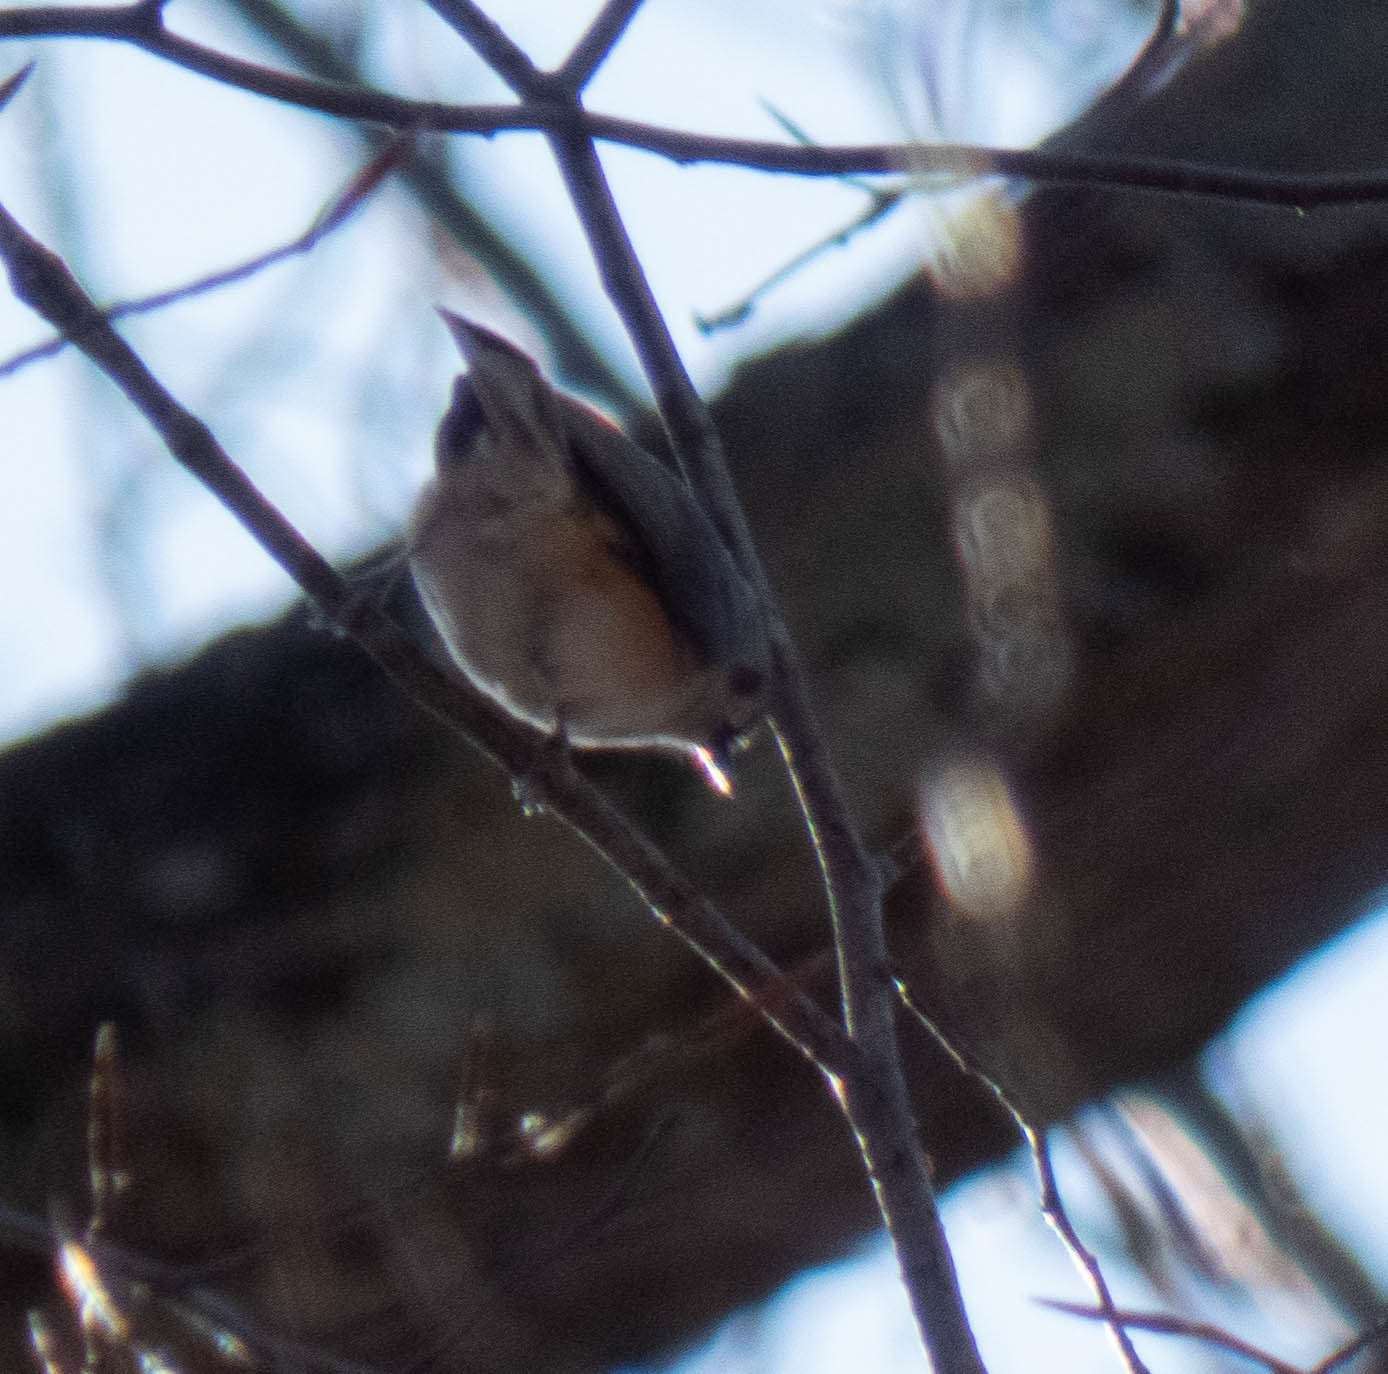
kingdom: Animalia
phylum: Chordata
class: Aves
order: Passeriformes
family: Paridae
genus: Baeolophus
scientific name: Baeolophus bicolor
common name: Tufted titmouse
